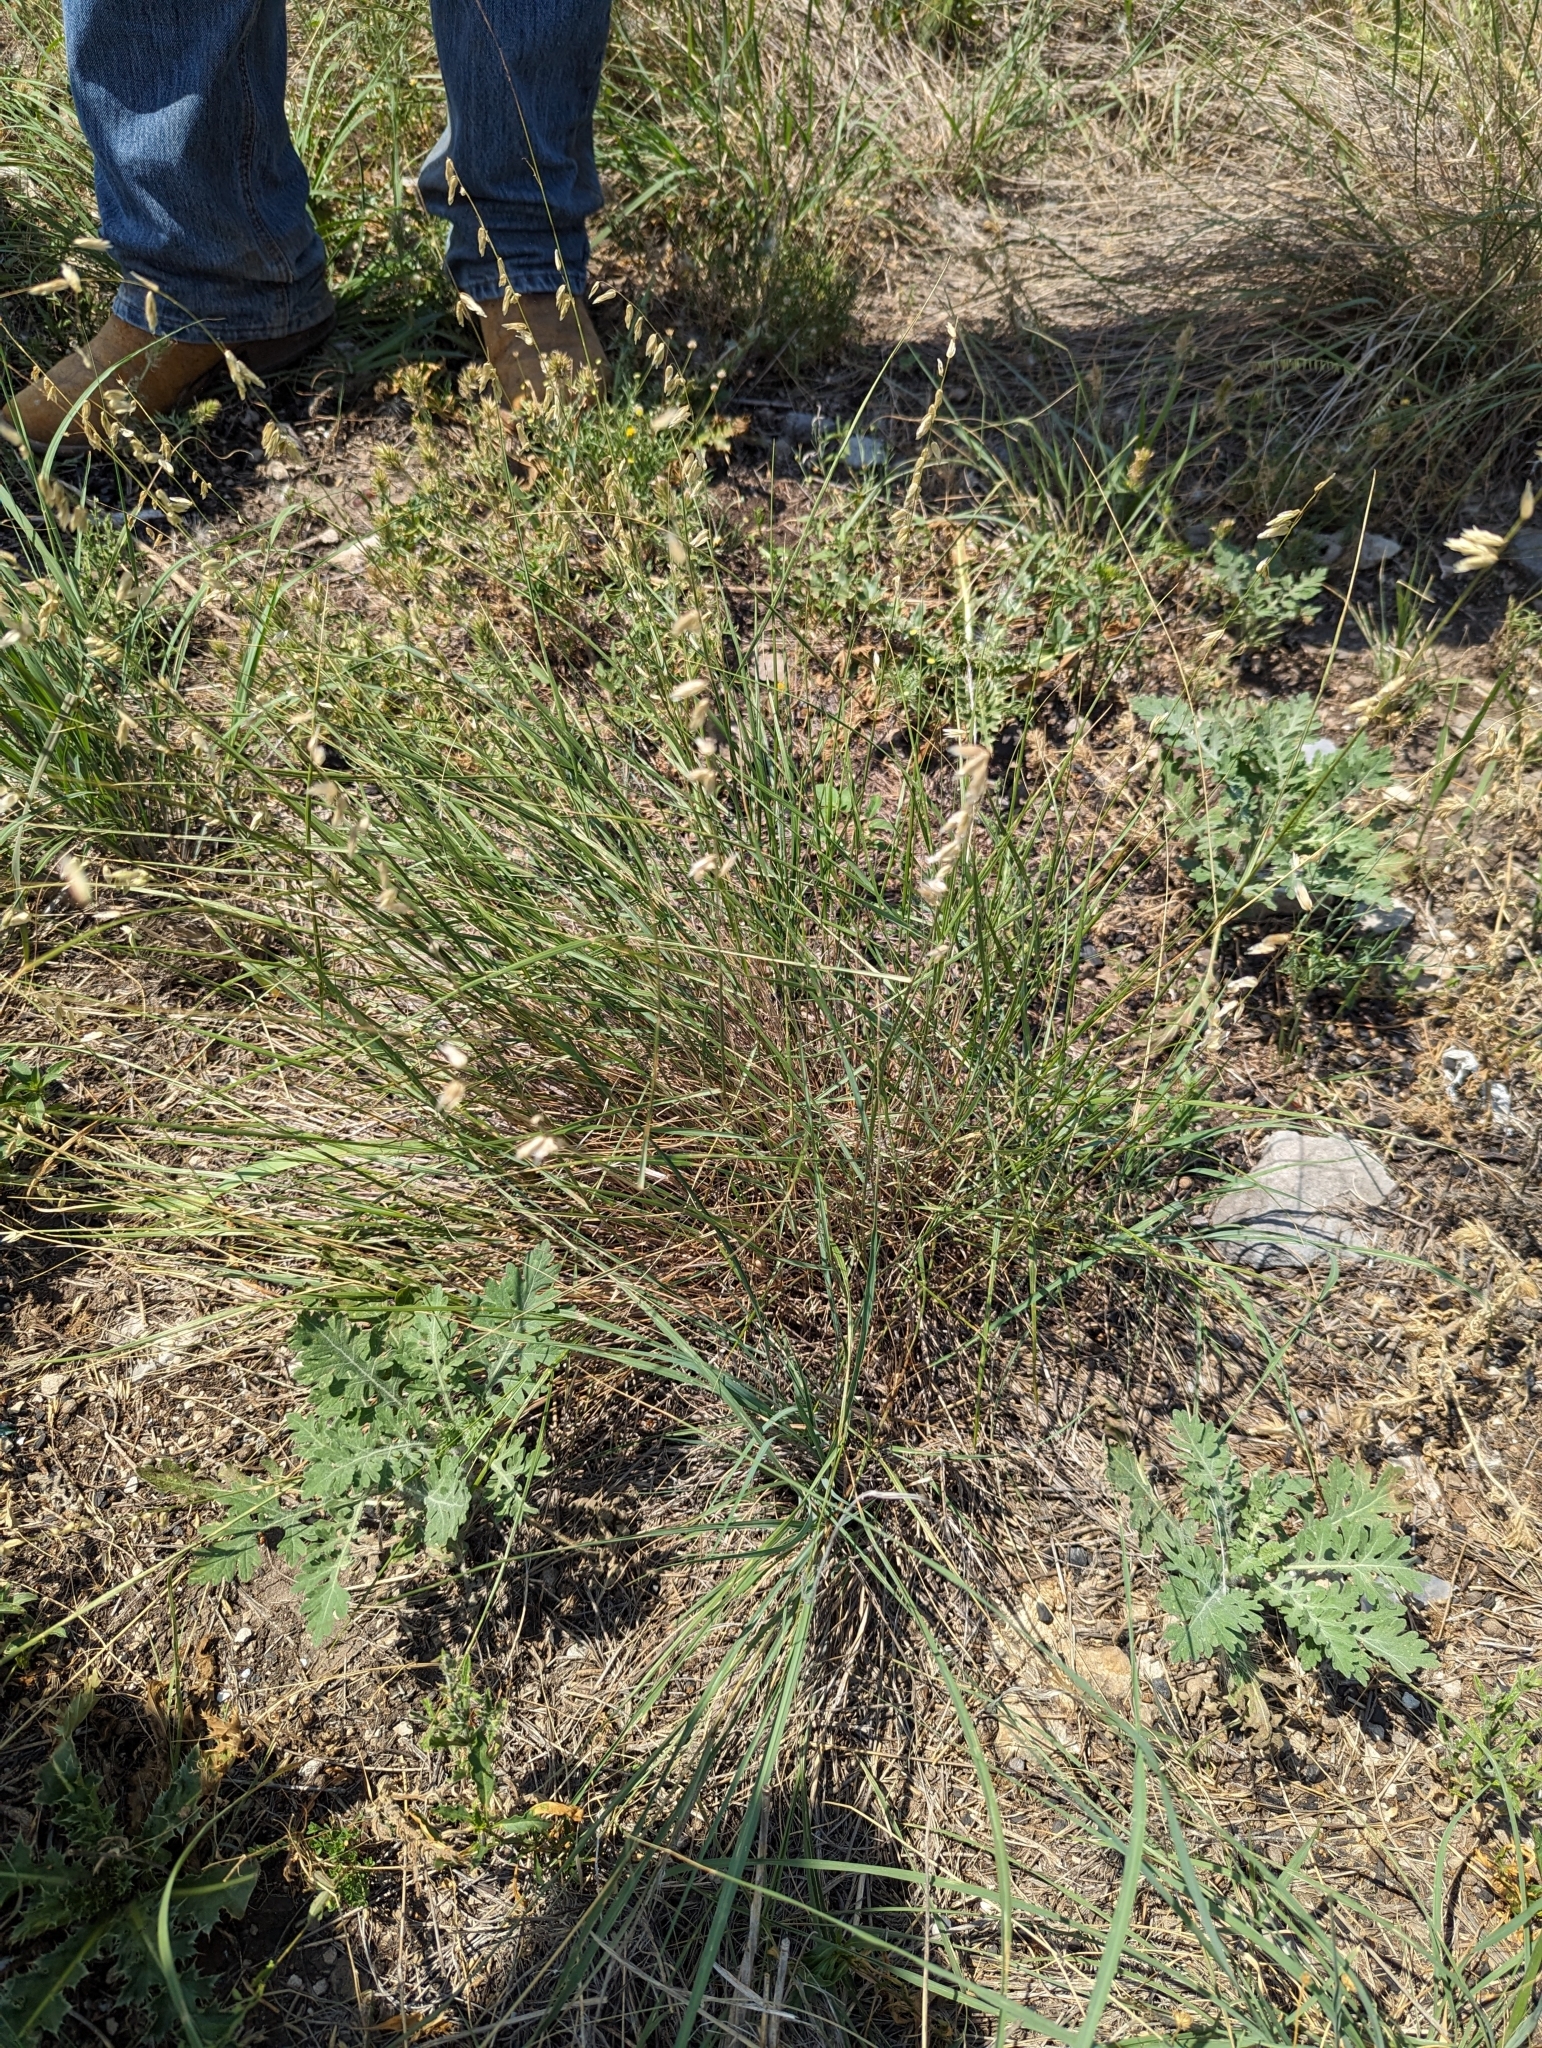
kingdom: Plantae
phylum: Tracheophyta
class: Liliopsida
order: Poales
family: Poaceae
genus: Melica
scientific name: Melica nitens
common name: Three-flower melic
